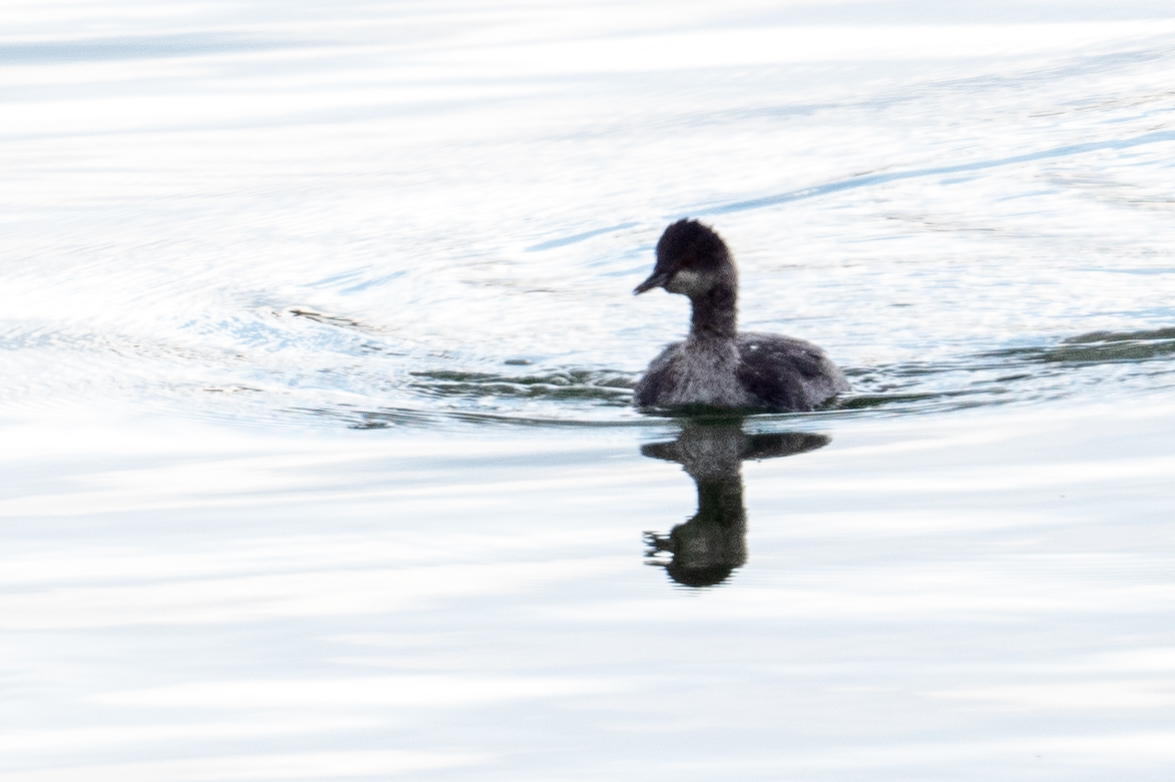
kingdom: Animalia
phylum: Chordata
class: Aves
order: Podicipediformes
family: Podicipedidae
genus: Podiceps
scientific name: Podiceps nigricollis
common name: Black-necked grebe
